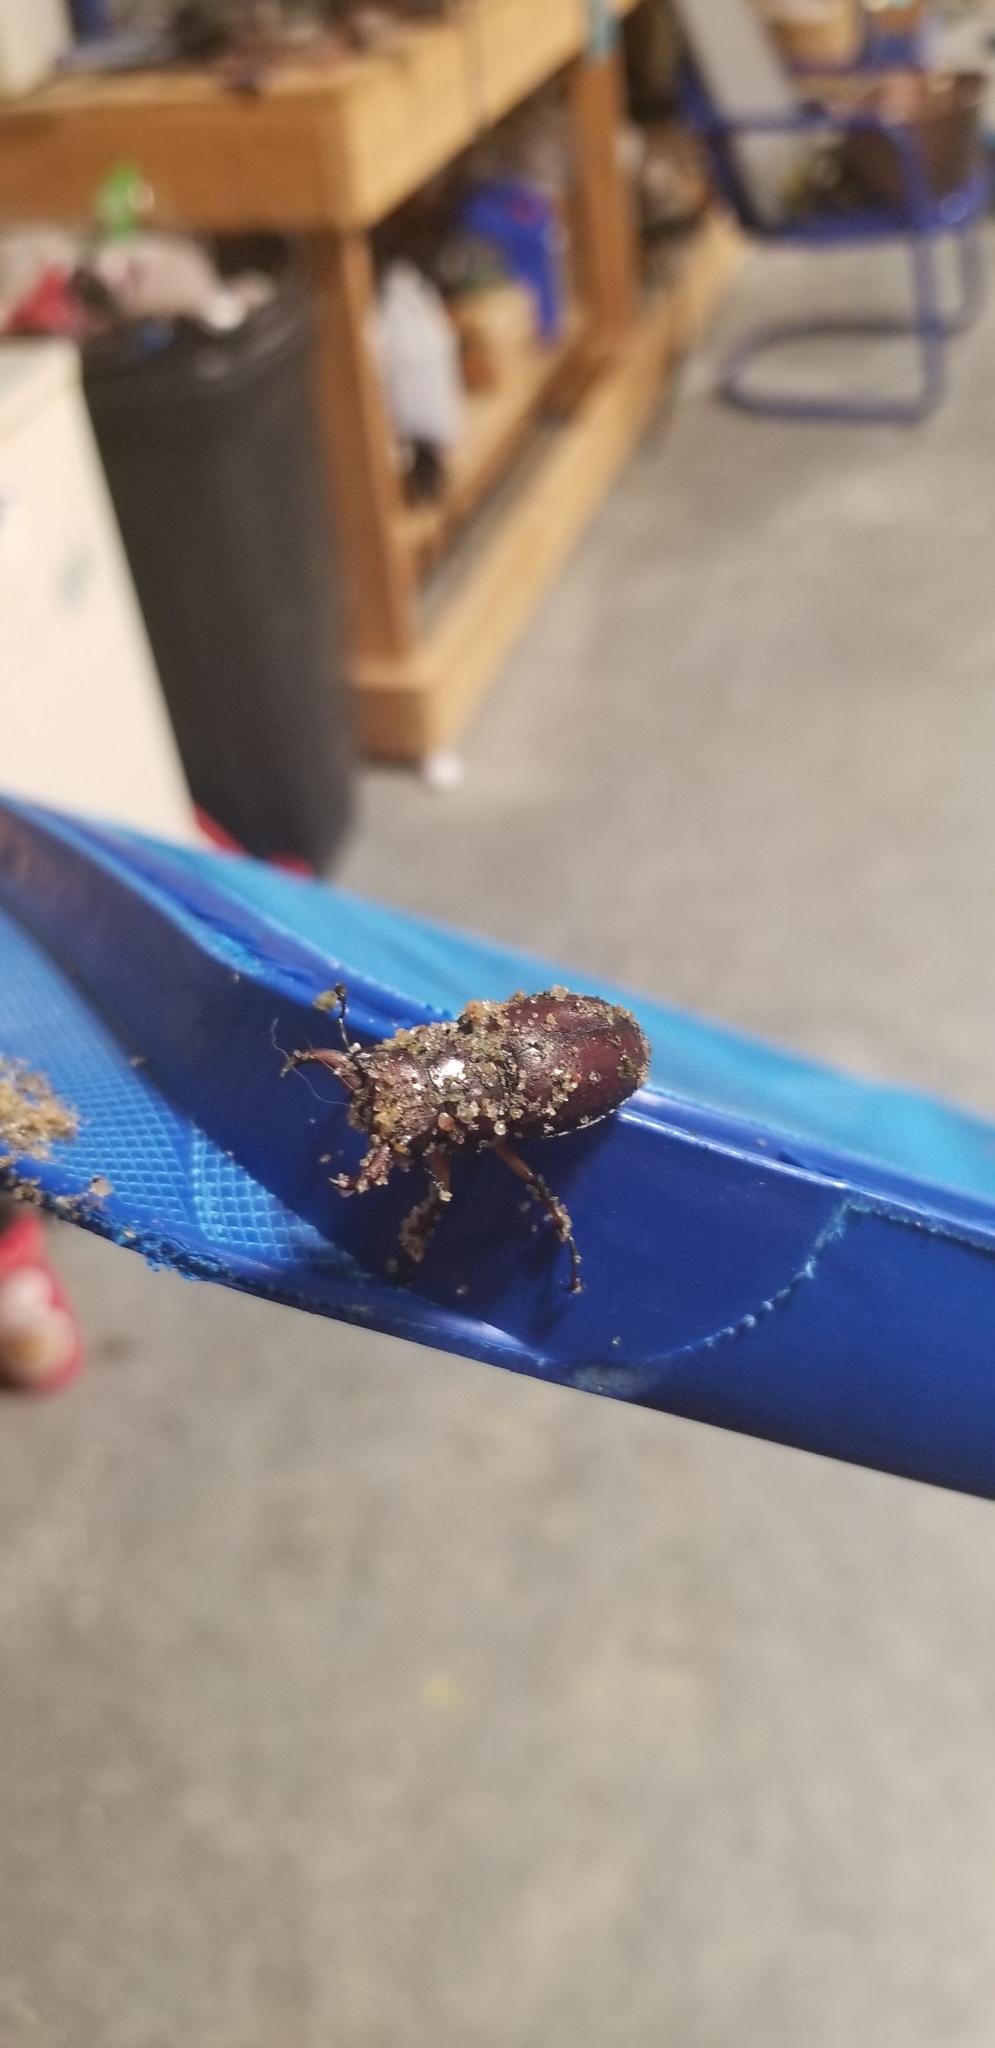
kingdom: Animalia
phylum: Arthropoda
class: Insecta
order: Coleoptera
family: Lucanidae
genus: Lucanus
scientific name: Lucanus capreolus
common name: Stag beetle
